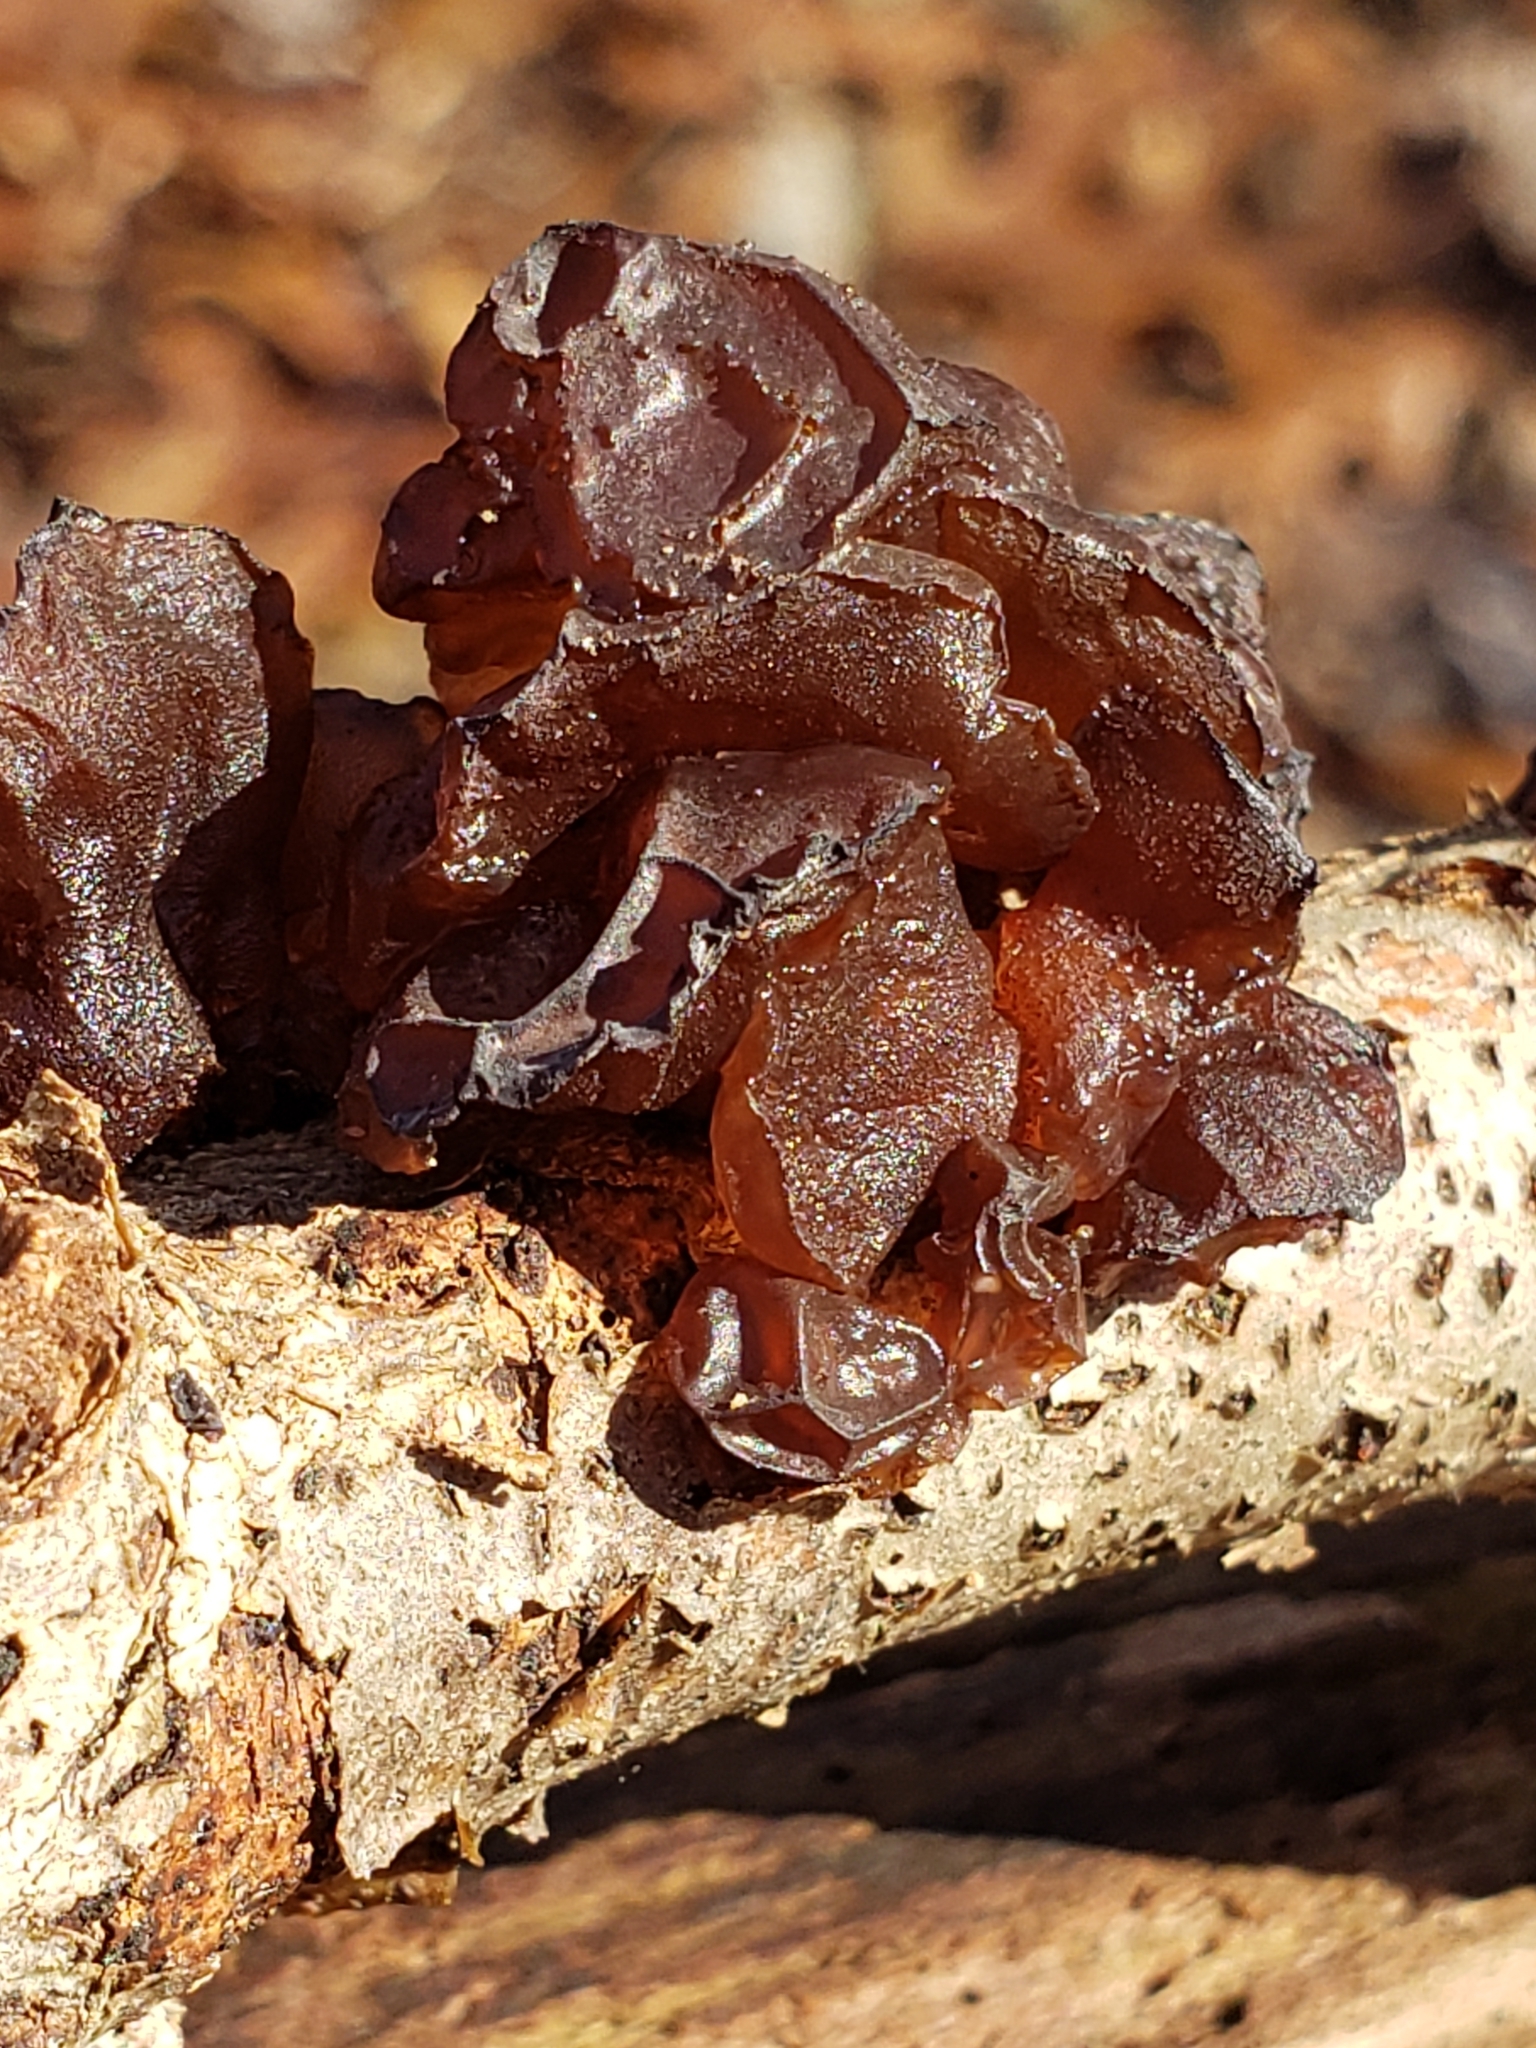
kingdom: Fungi
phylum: Basidiomycota
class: Agaricomycetes
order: Auriculariales
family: Auriculariaceae
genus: Exidia
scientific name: Exidia
